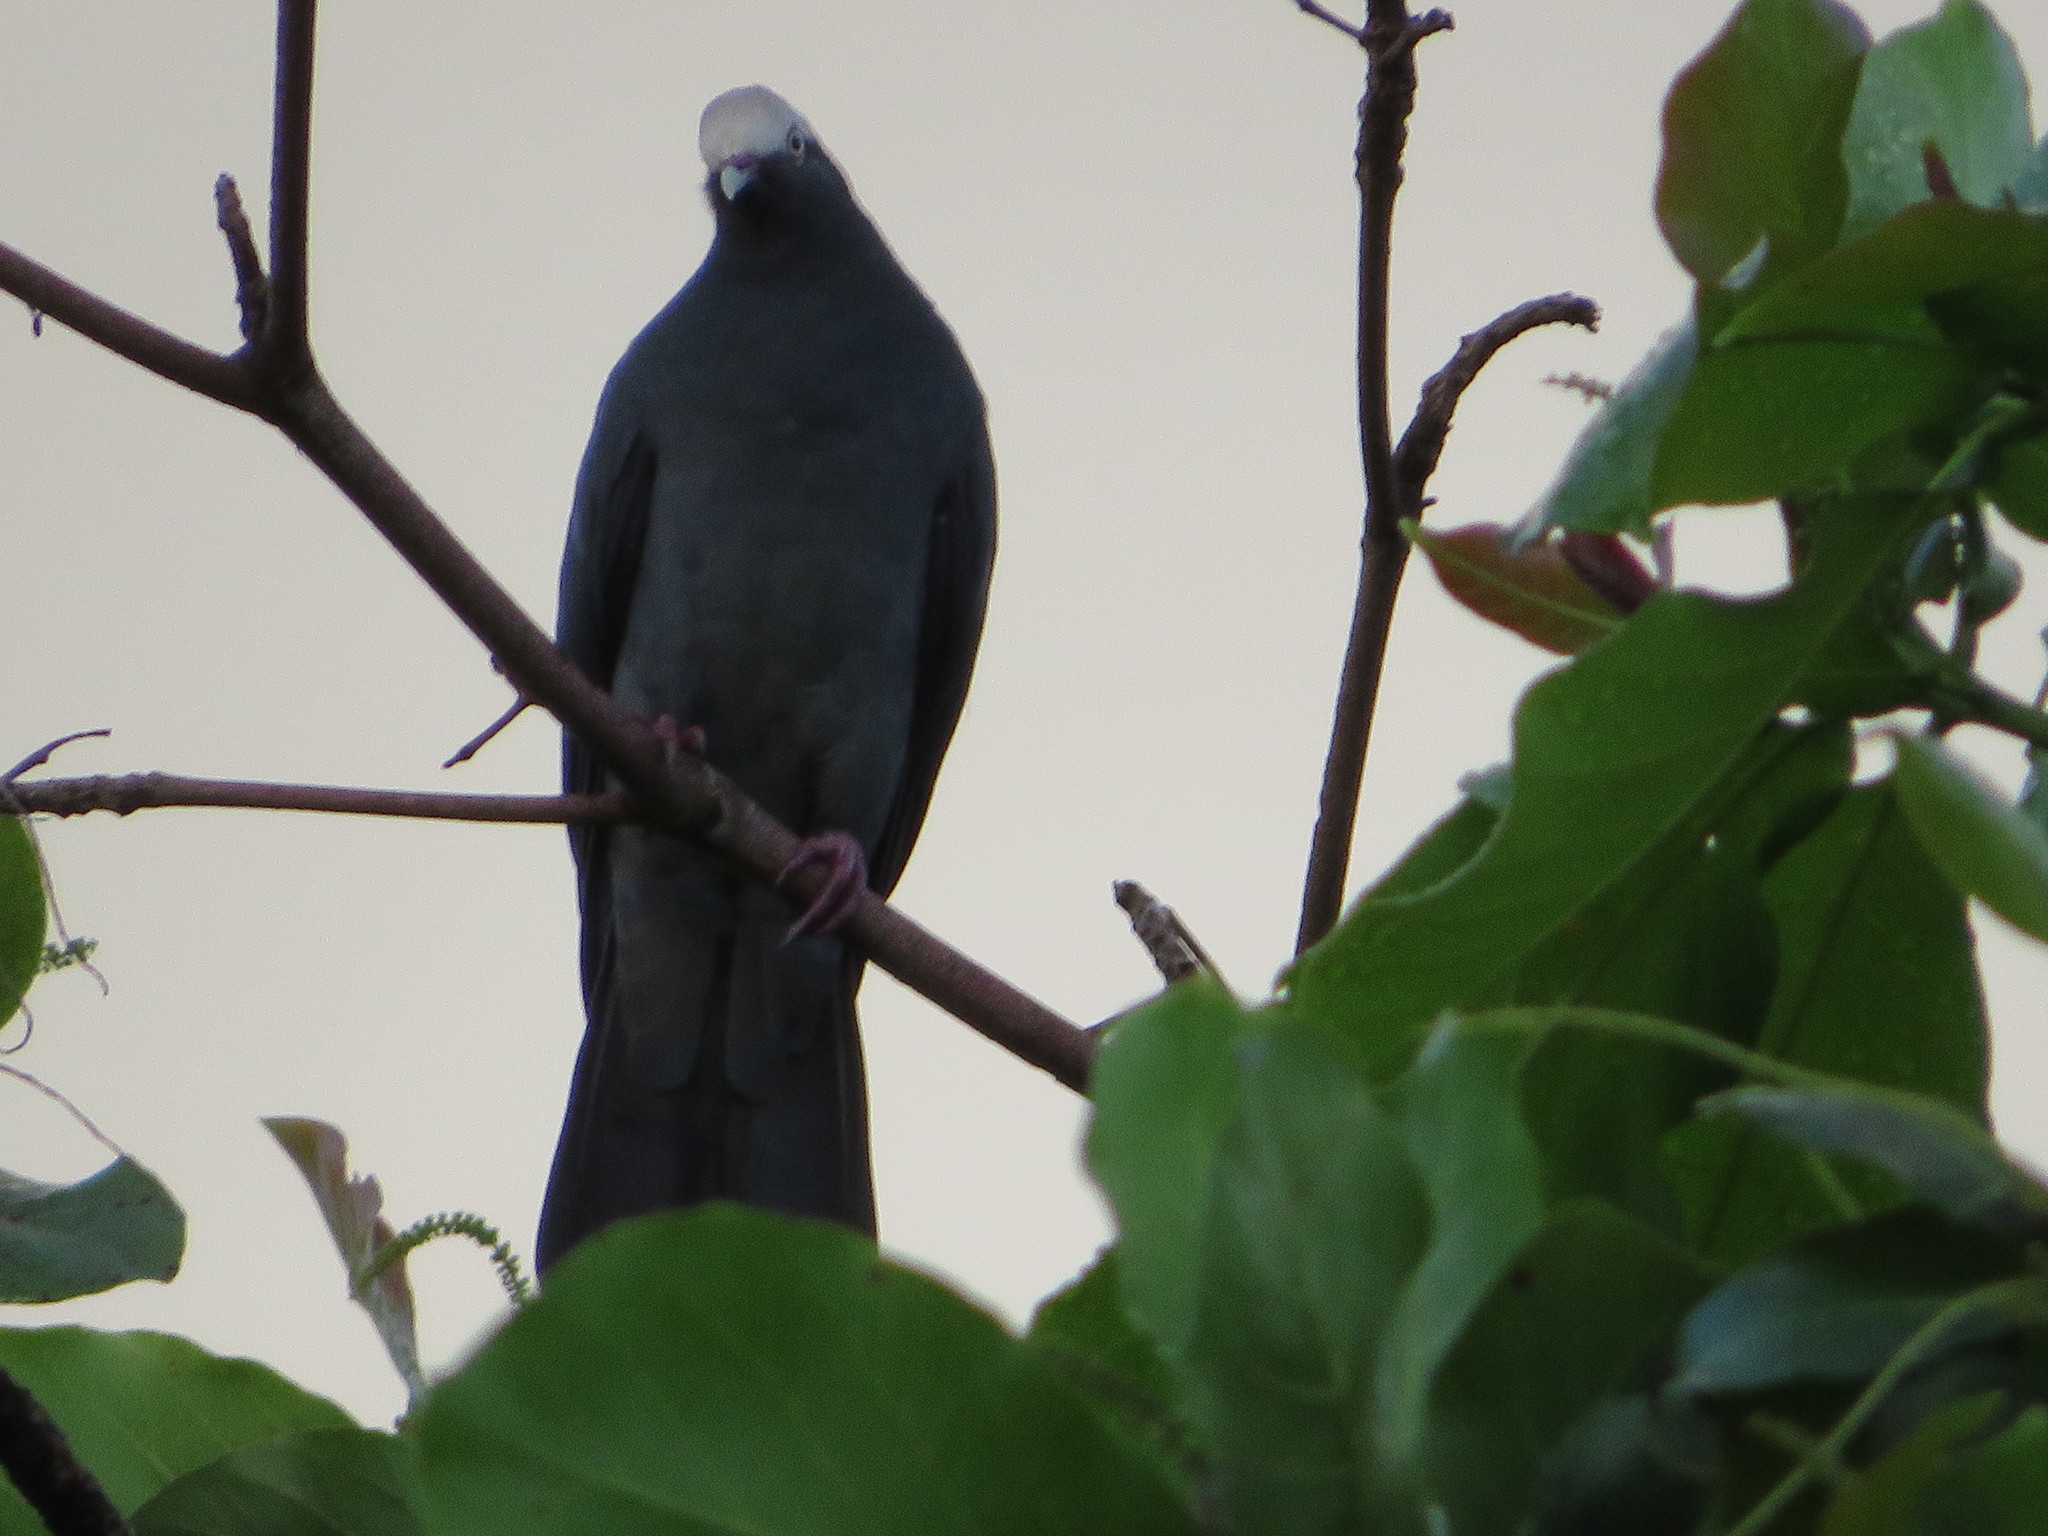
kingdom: Animalia
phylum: Chordata
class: Aves
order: Columbiformes
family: Columbidae
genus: Patagioenas
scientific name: Patagioenas leucocephala
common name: White-crowned pigeon
